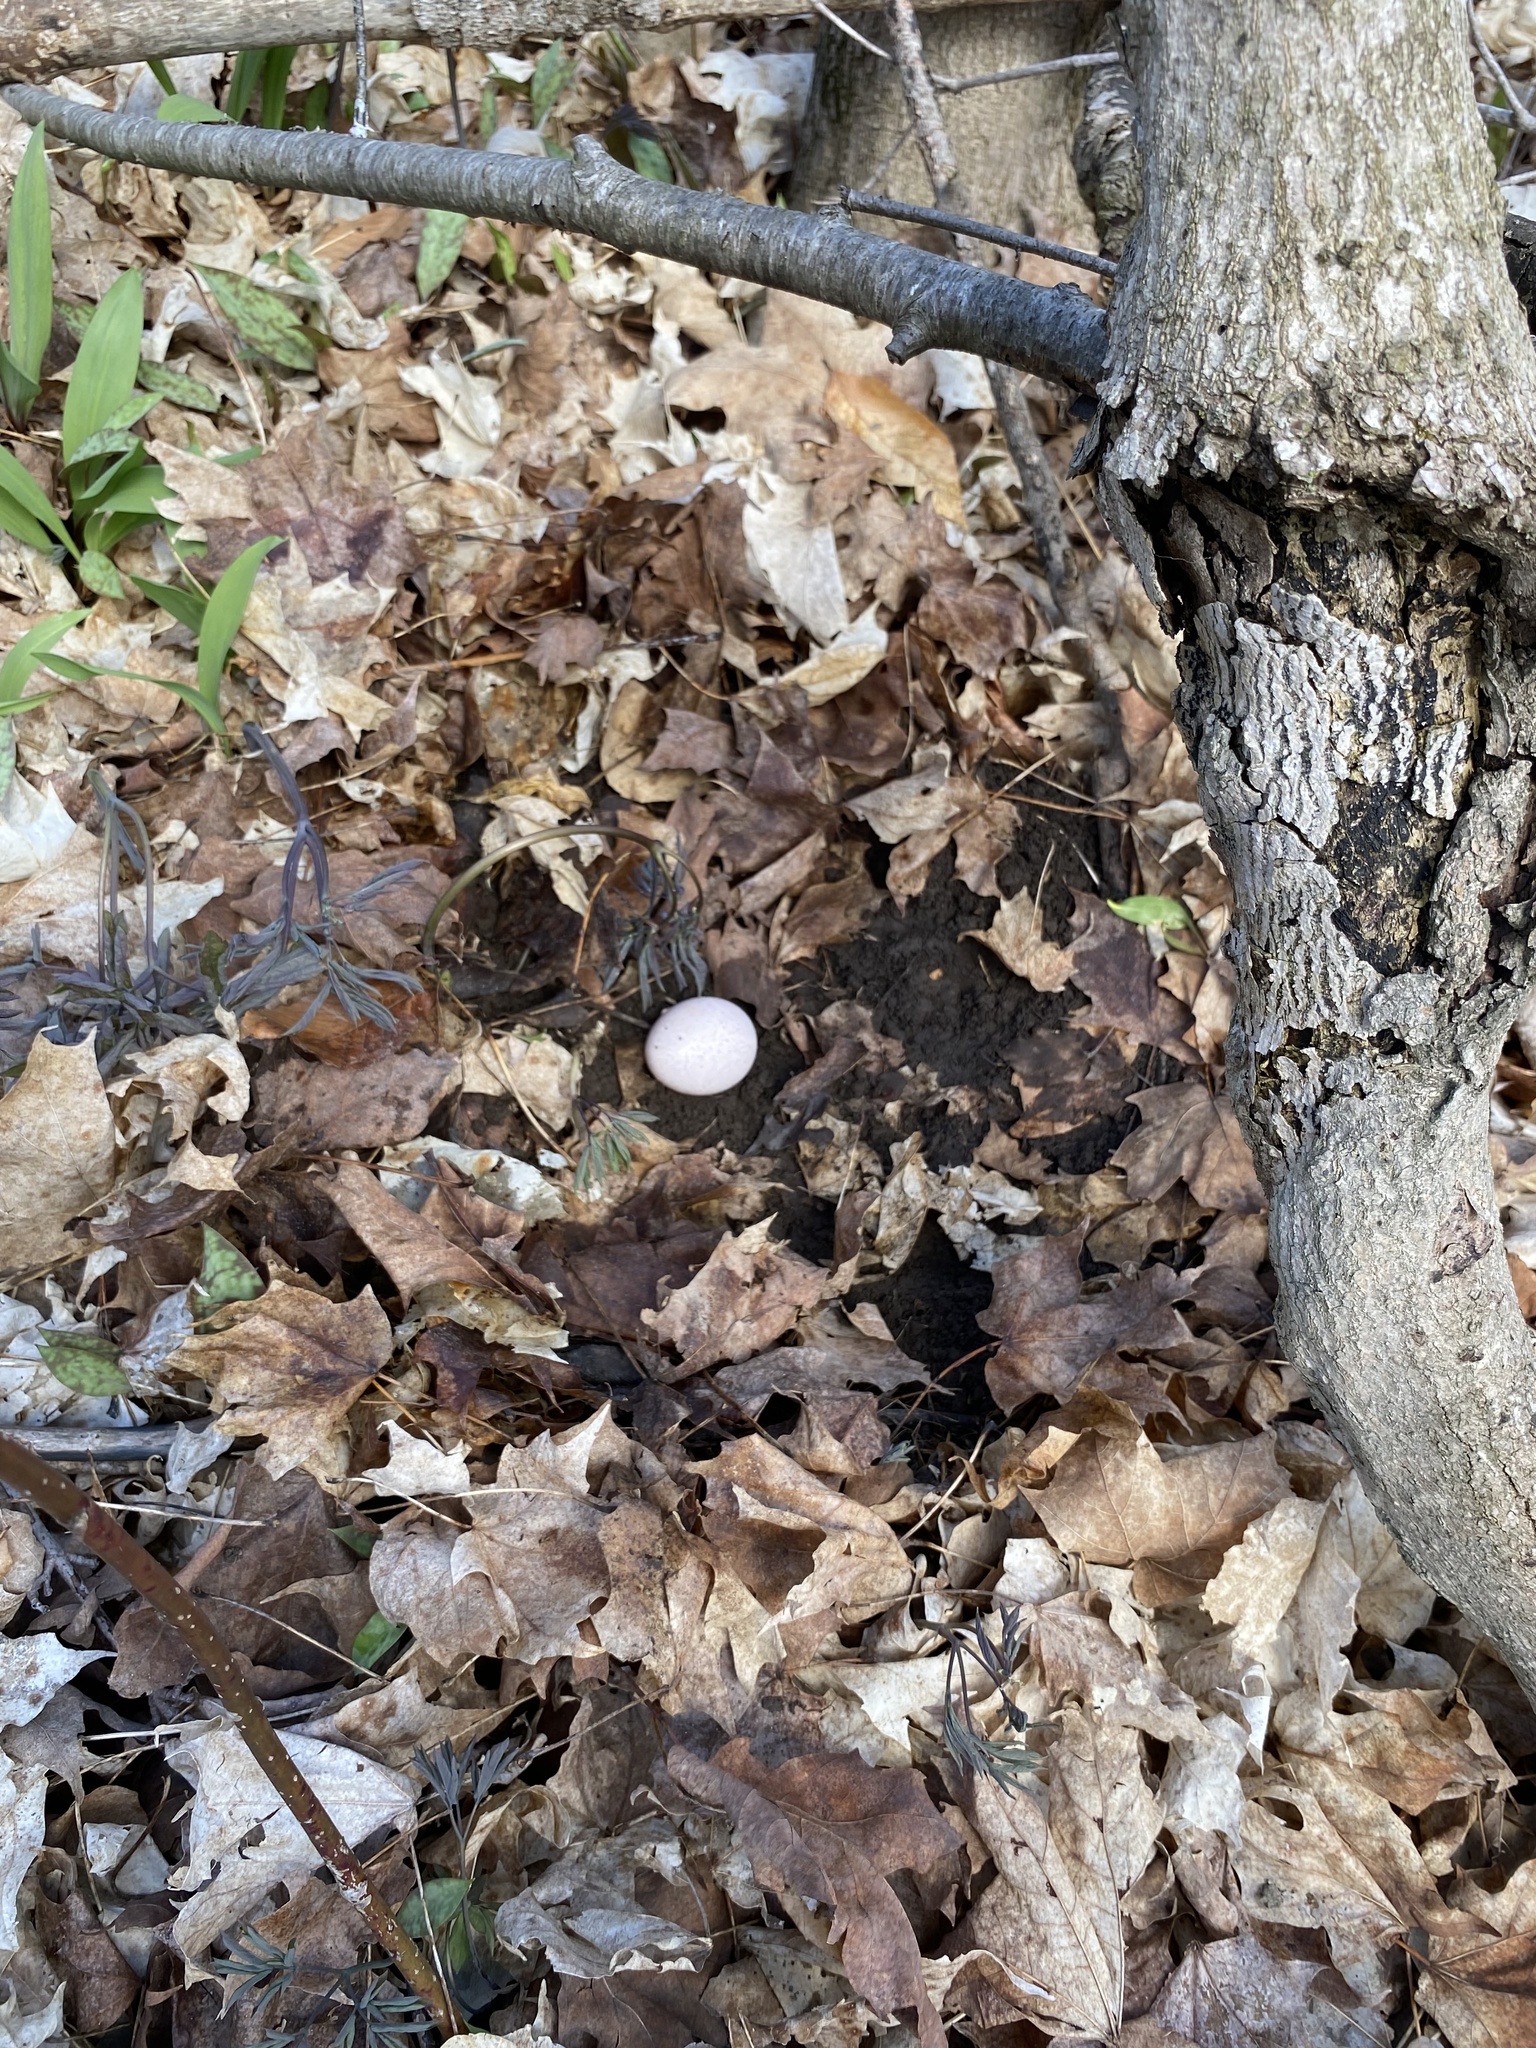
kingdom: Animalia
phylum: Chordata
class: Aves
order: Galliformes
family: Phasianidae
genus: Meleagris
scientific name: Meleagris gallopavo
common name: Wild turkey
